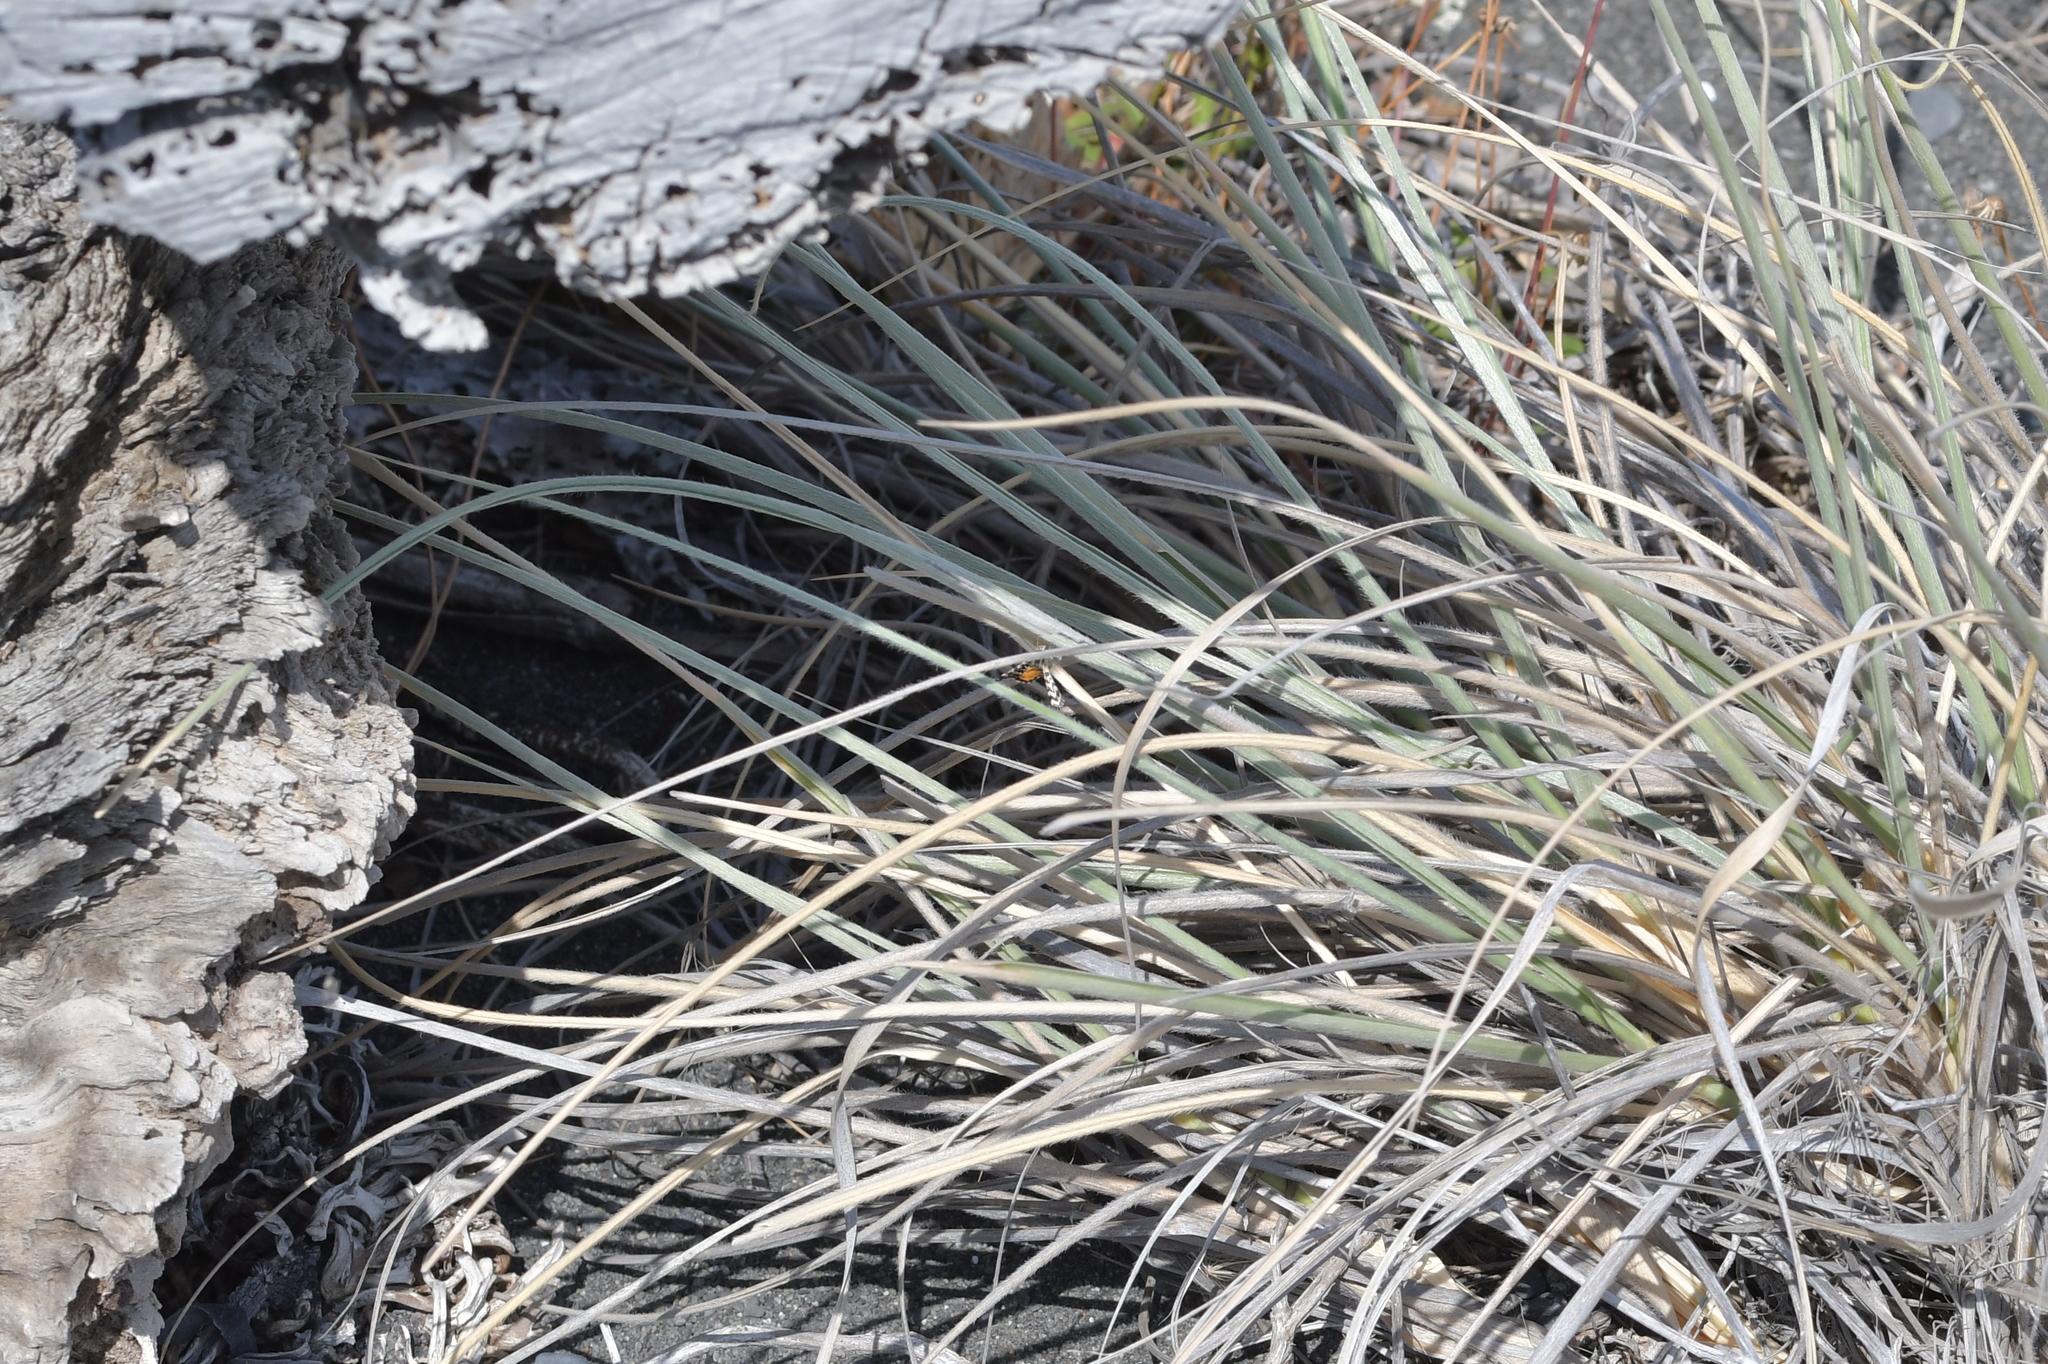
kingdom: Animalia
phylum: Arthropoda
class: Insecta
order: Lepidoptera
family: Geometridae
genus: Notoreas
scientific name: Notoreas perornata
